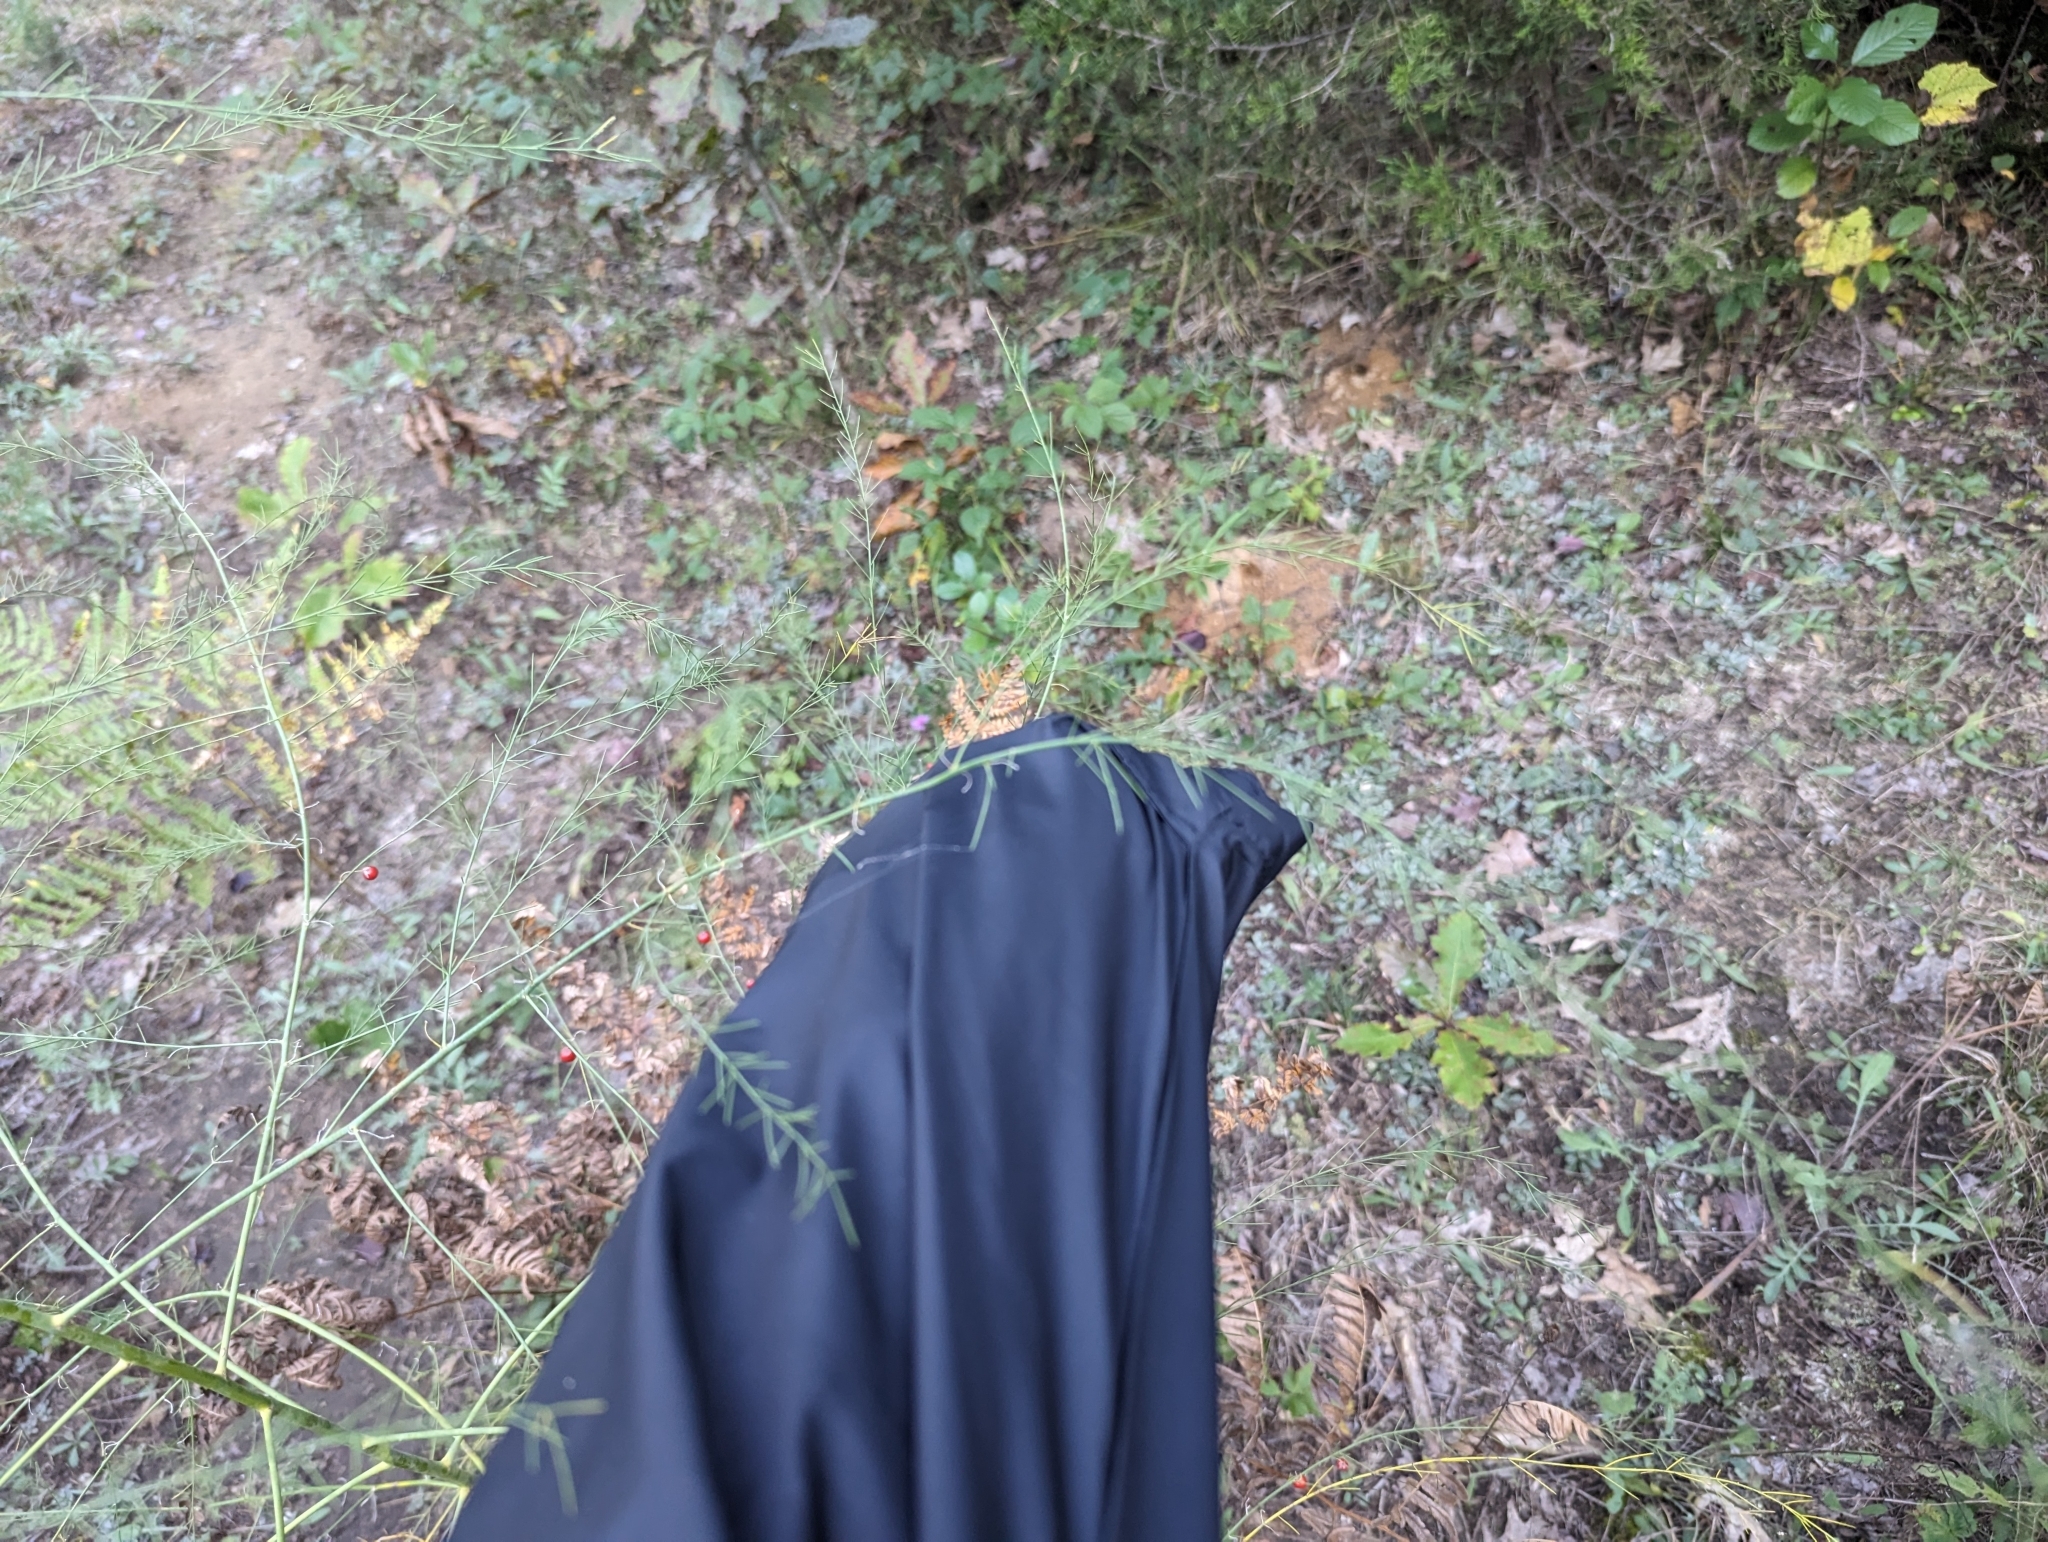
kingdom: Plantae
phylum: Tracheophyta
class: Liliopsida
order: Asparagales
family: Asparagaceae
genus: Asparagus
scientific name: Asparagus officinalis
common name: Garden asparagus
